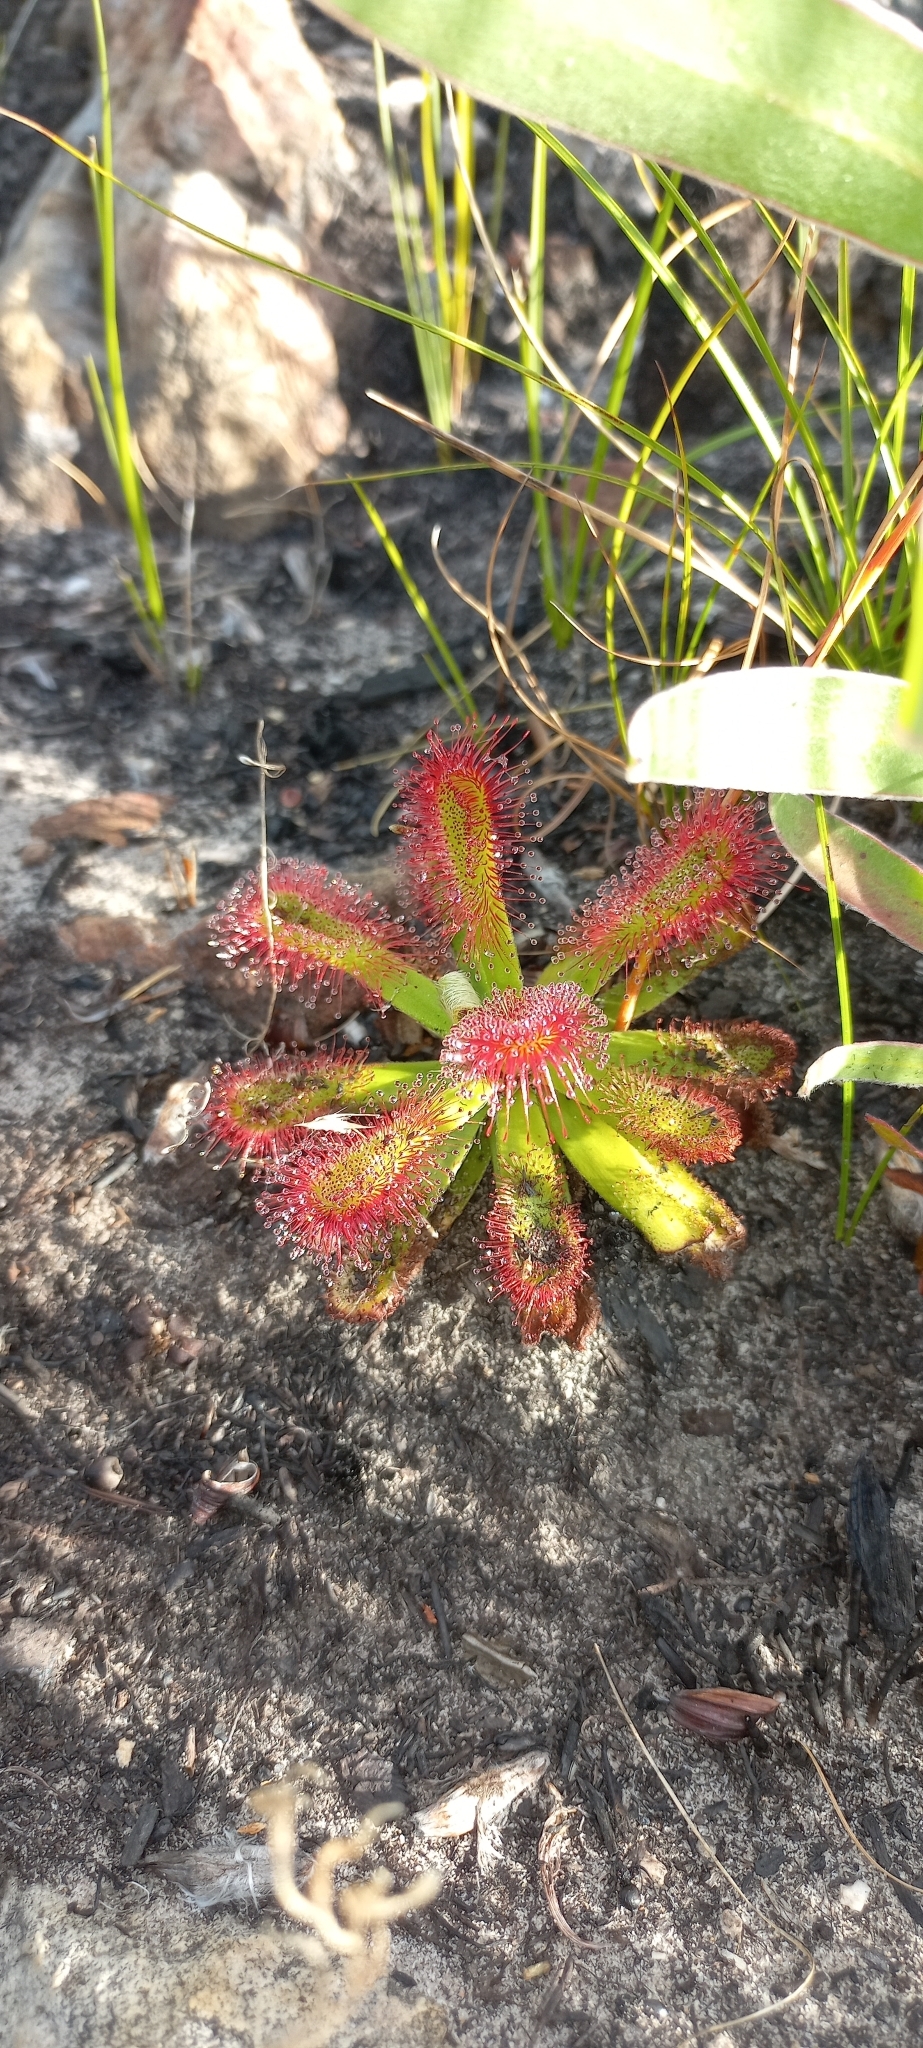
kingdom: Plantae
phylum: Tracheophyta
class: Magnoliopsida
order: Caryophyllales
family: Droseraceae
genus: Drosera
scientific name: Drosera aliciae
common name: Alice sundew
